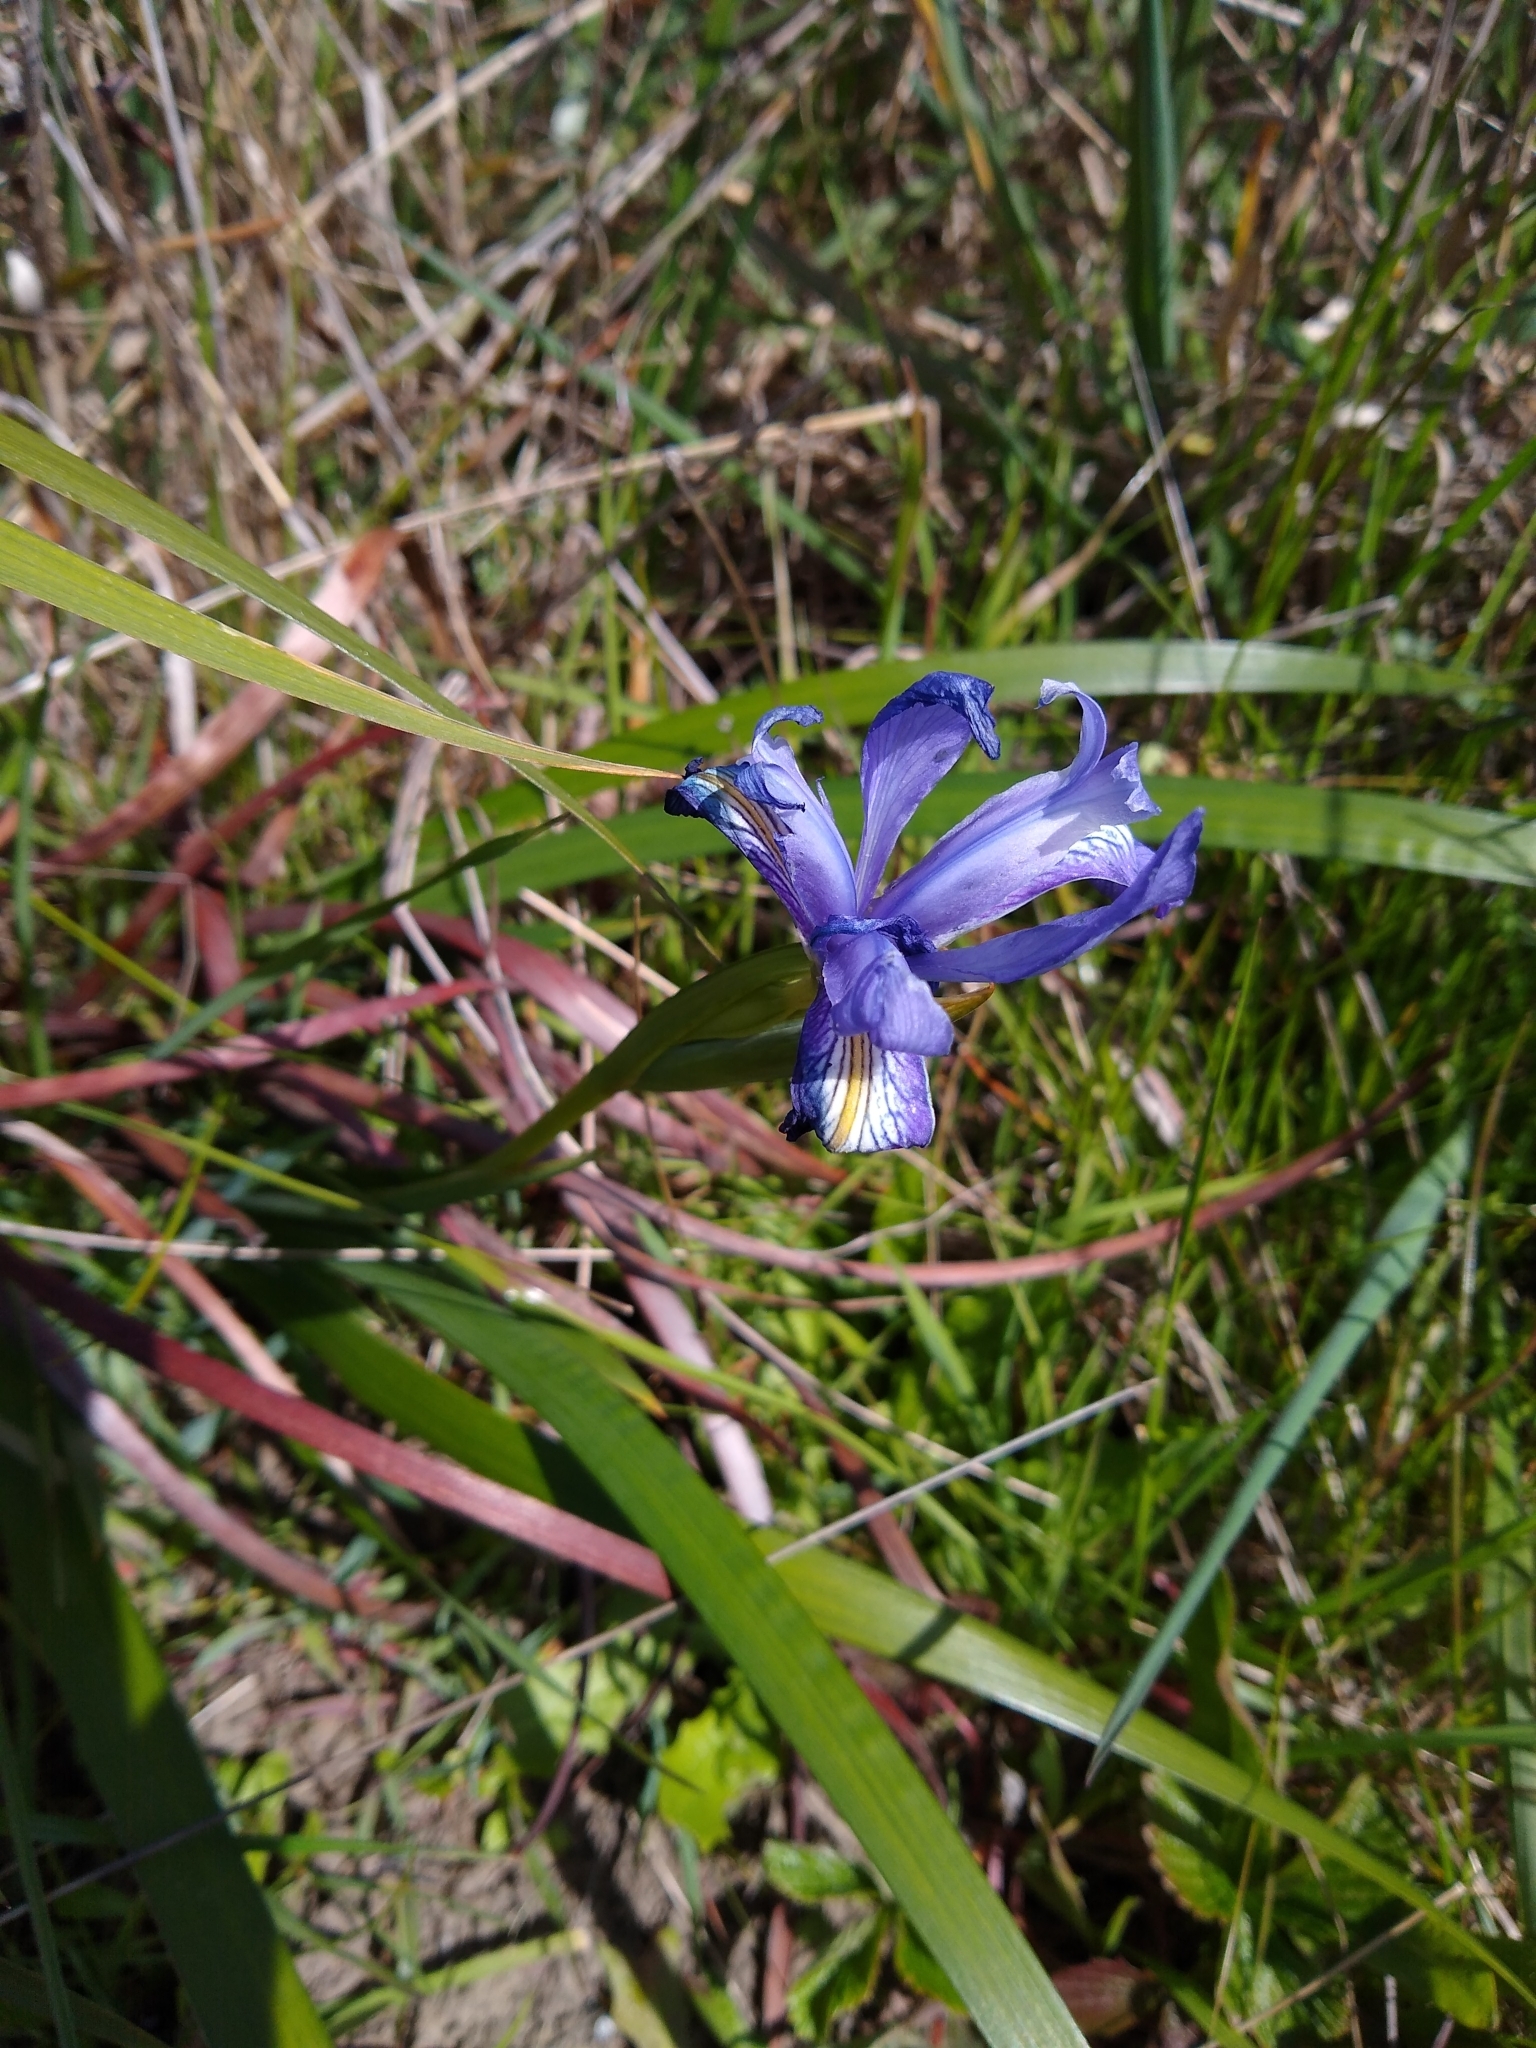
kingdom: Plantae
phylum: Tracheophyta
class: Liliopsida
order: Asparagales
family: Iridaceae
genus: Iris
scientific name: Iris douglasiana
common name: Marin iris
